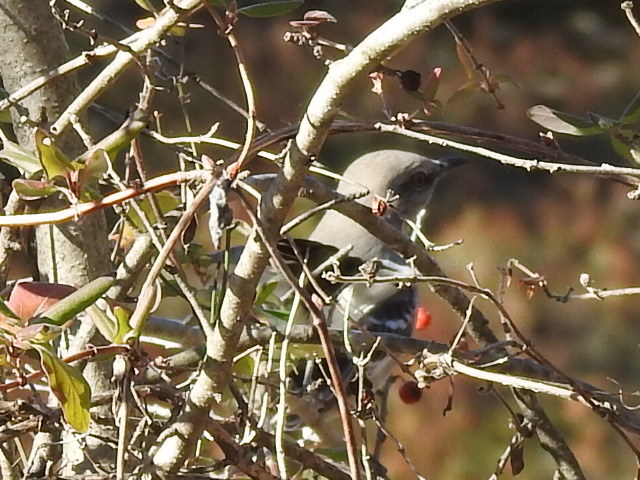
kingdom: Animalia
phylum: Chordata
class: Aves
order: Passeriformes
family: Mimidae
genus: Mimus
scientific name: Mimus polyglottos
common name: Northern mockingbird
